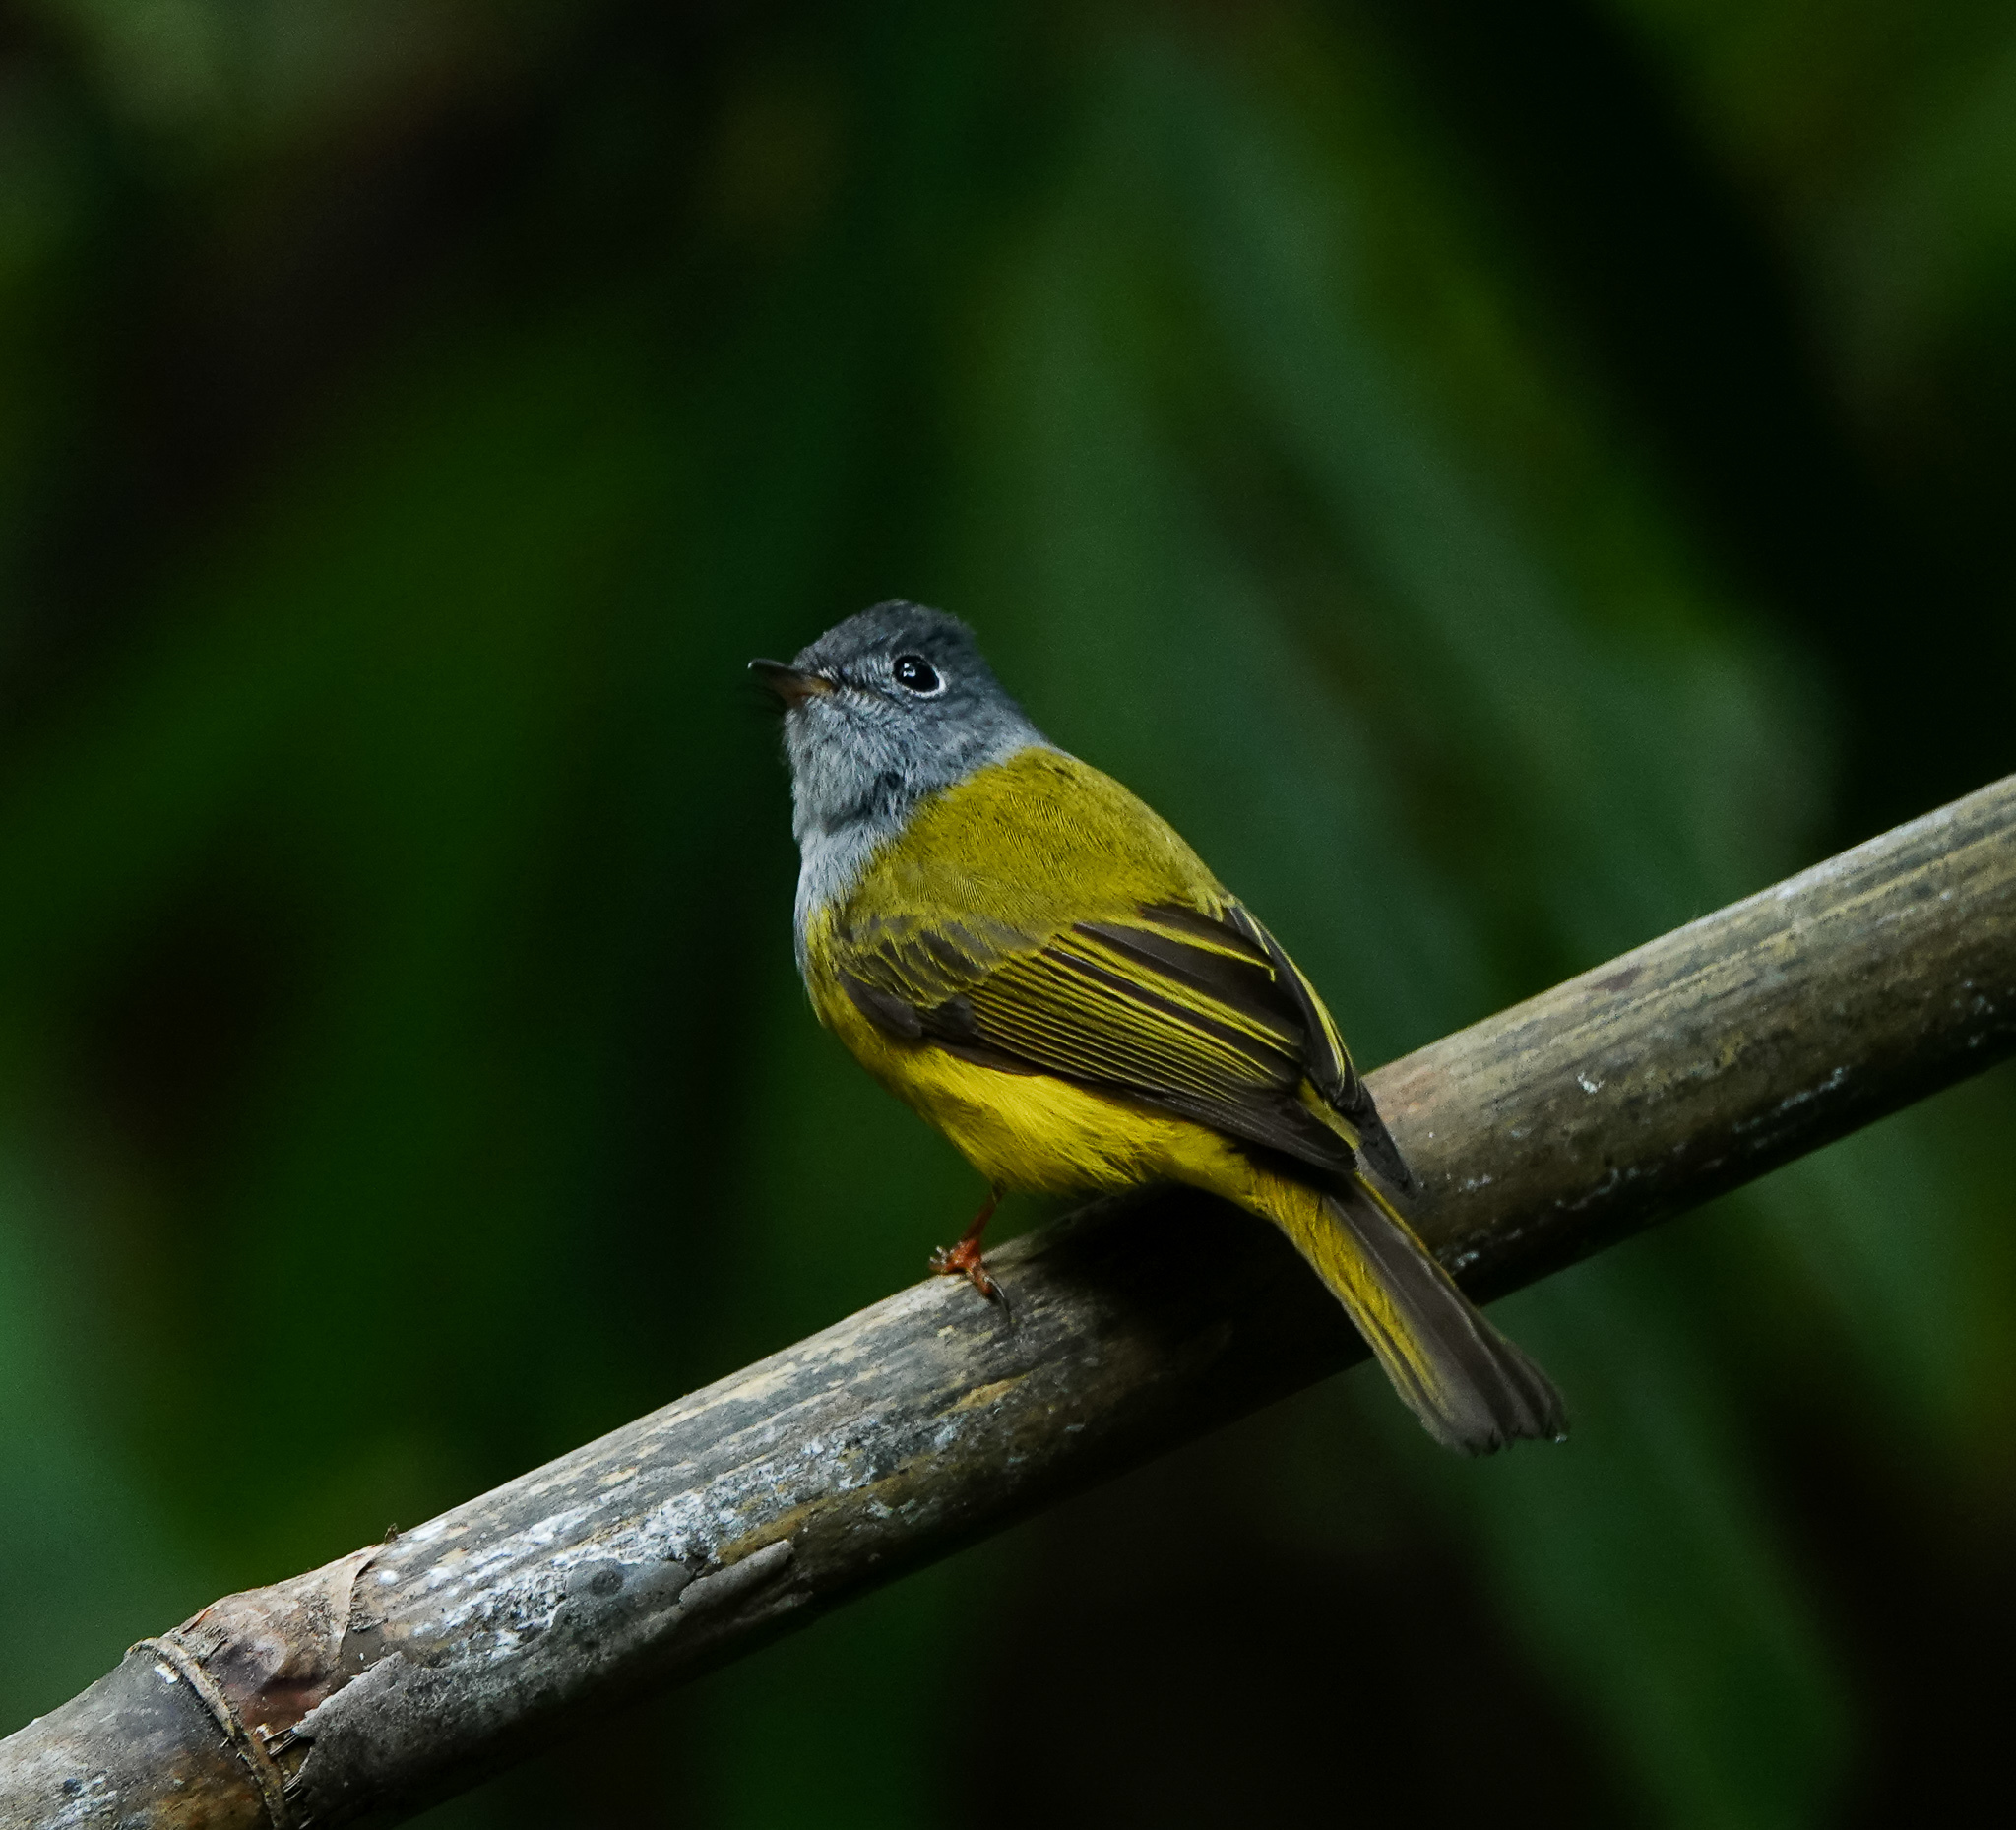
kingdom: Animalia
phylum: Chordata
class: Aves
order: Passeriformes
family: Stenostiridae
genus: Culicicapa
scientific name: Culicicapa ceylonensis
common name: Grey-headed canary-flycatcher
